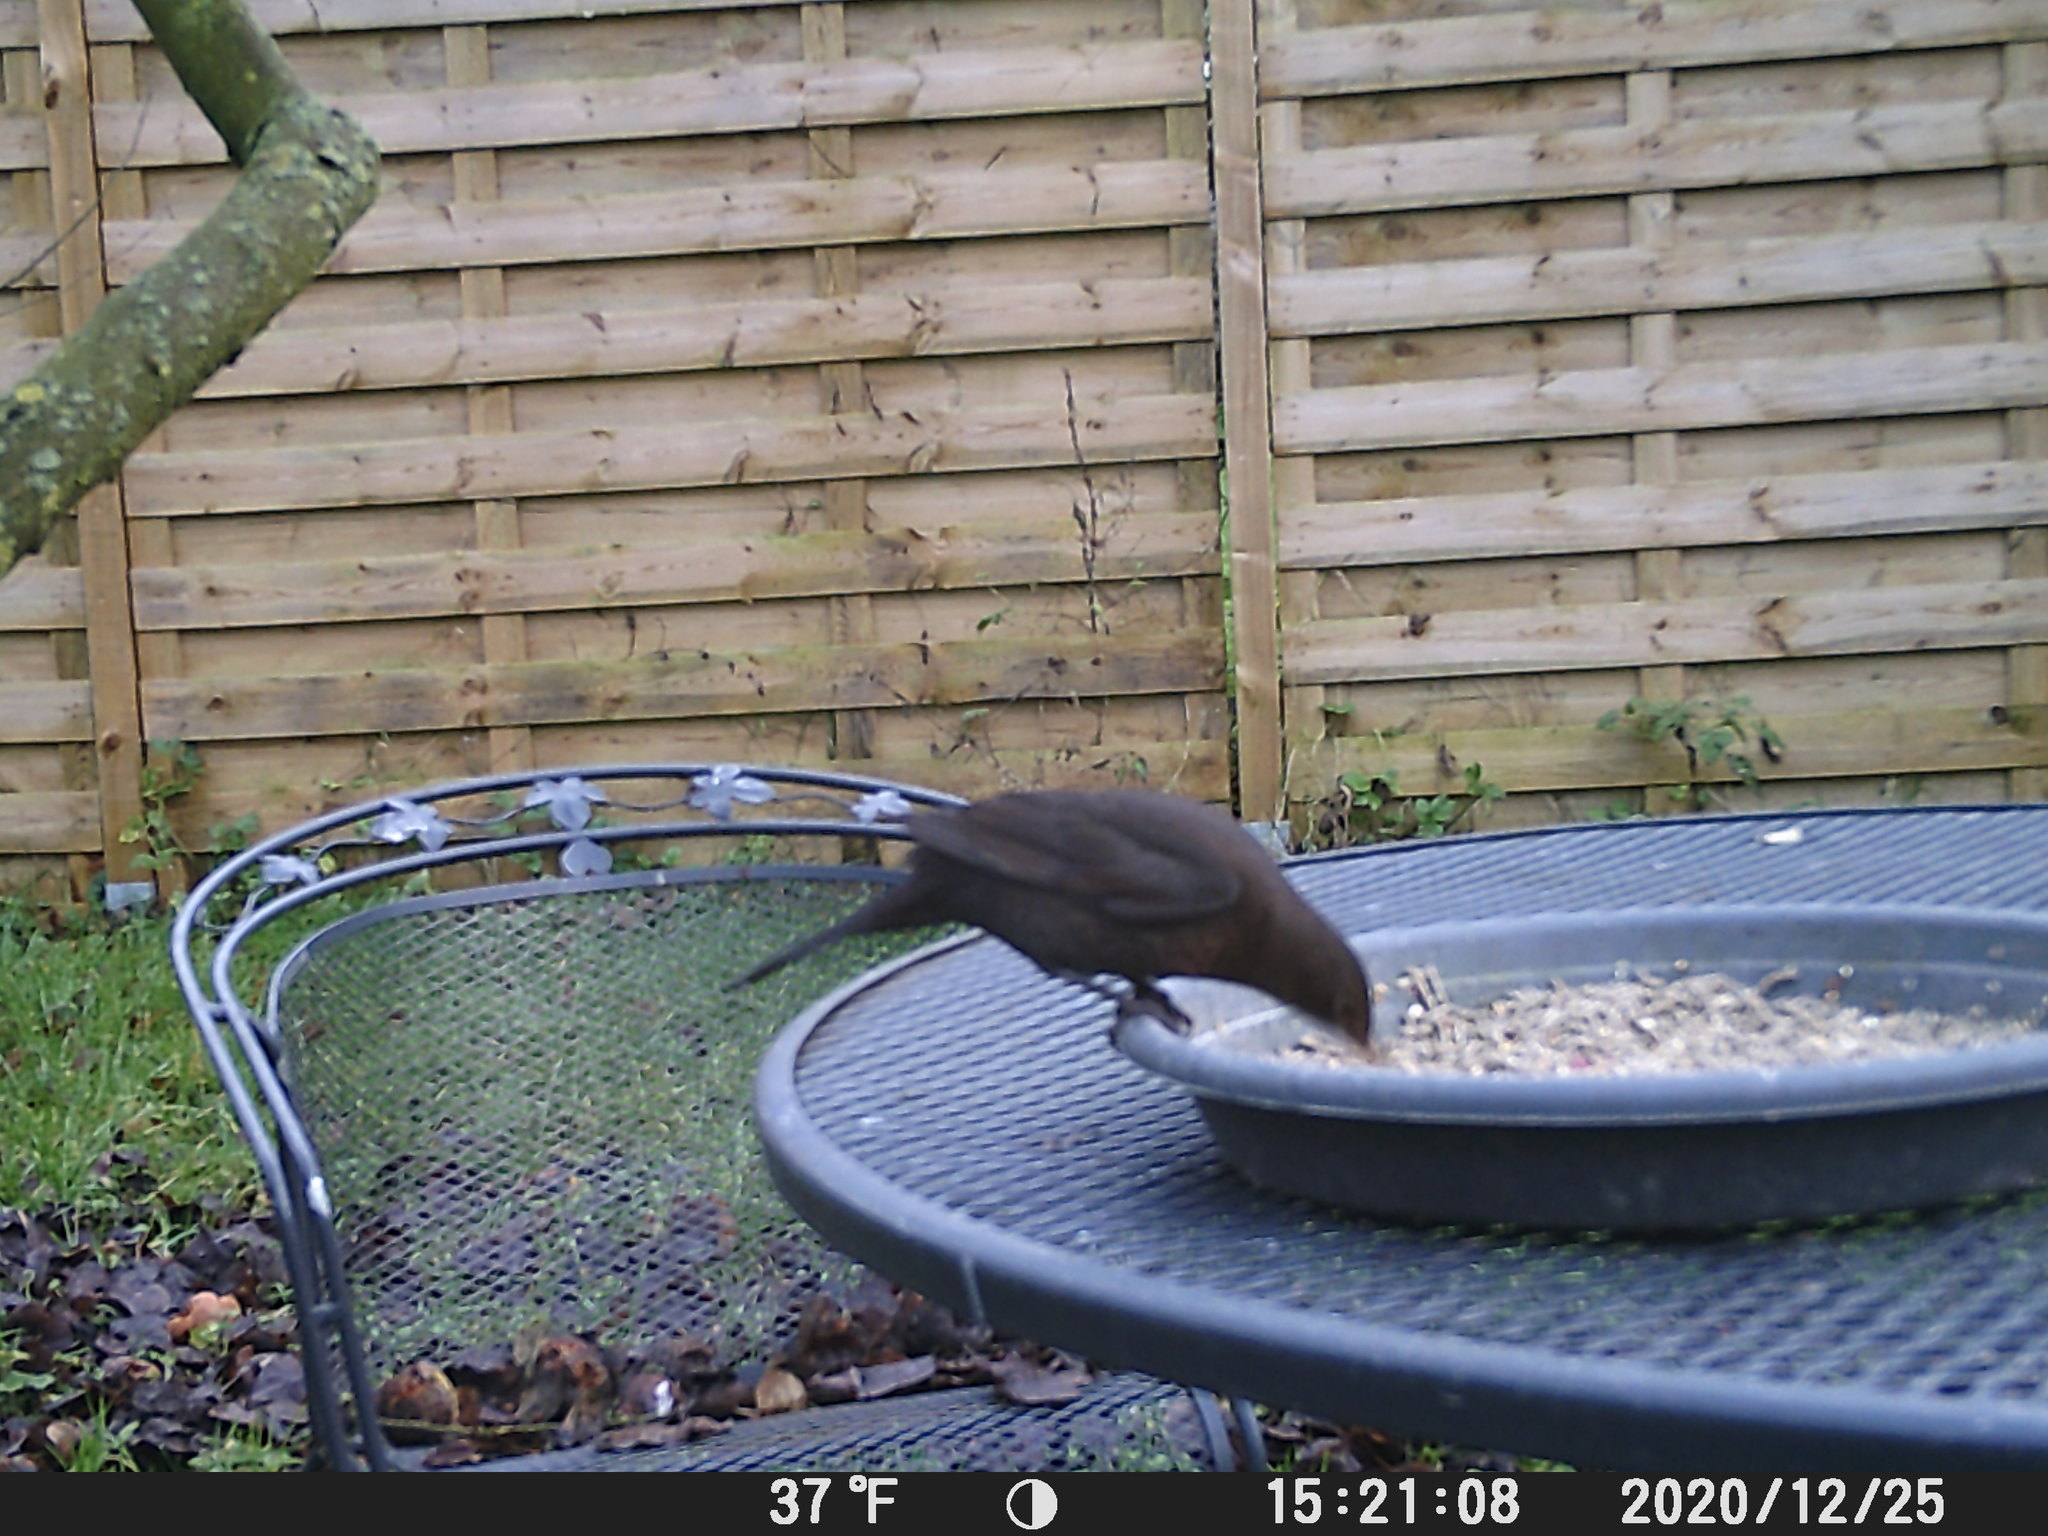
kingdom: Animalia
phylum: Chordata
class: Aves
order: Passeriformes
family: Turdidae
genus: Turdus
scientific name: Turdus merula
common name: Common blackbird
